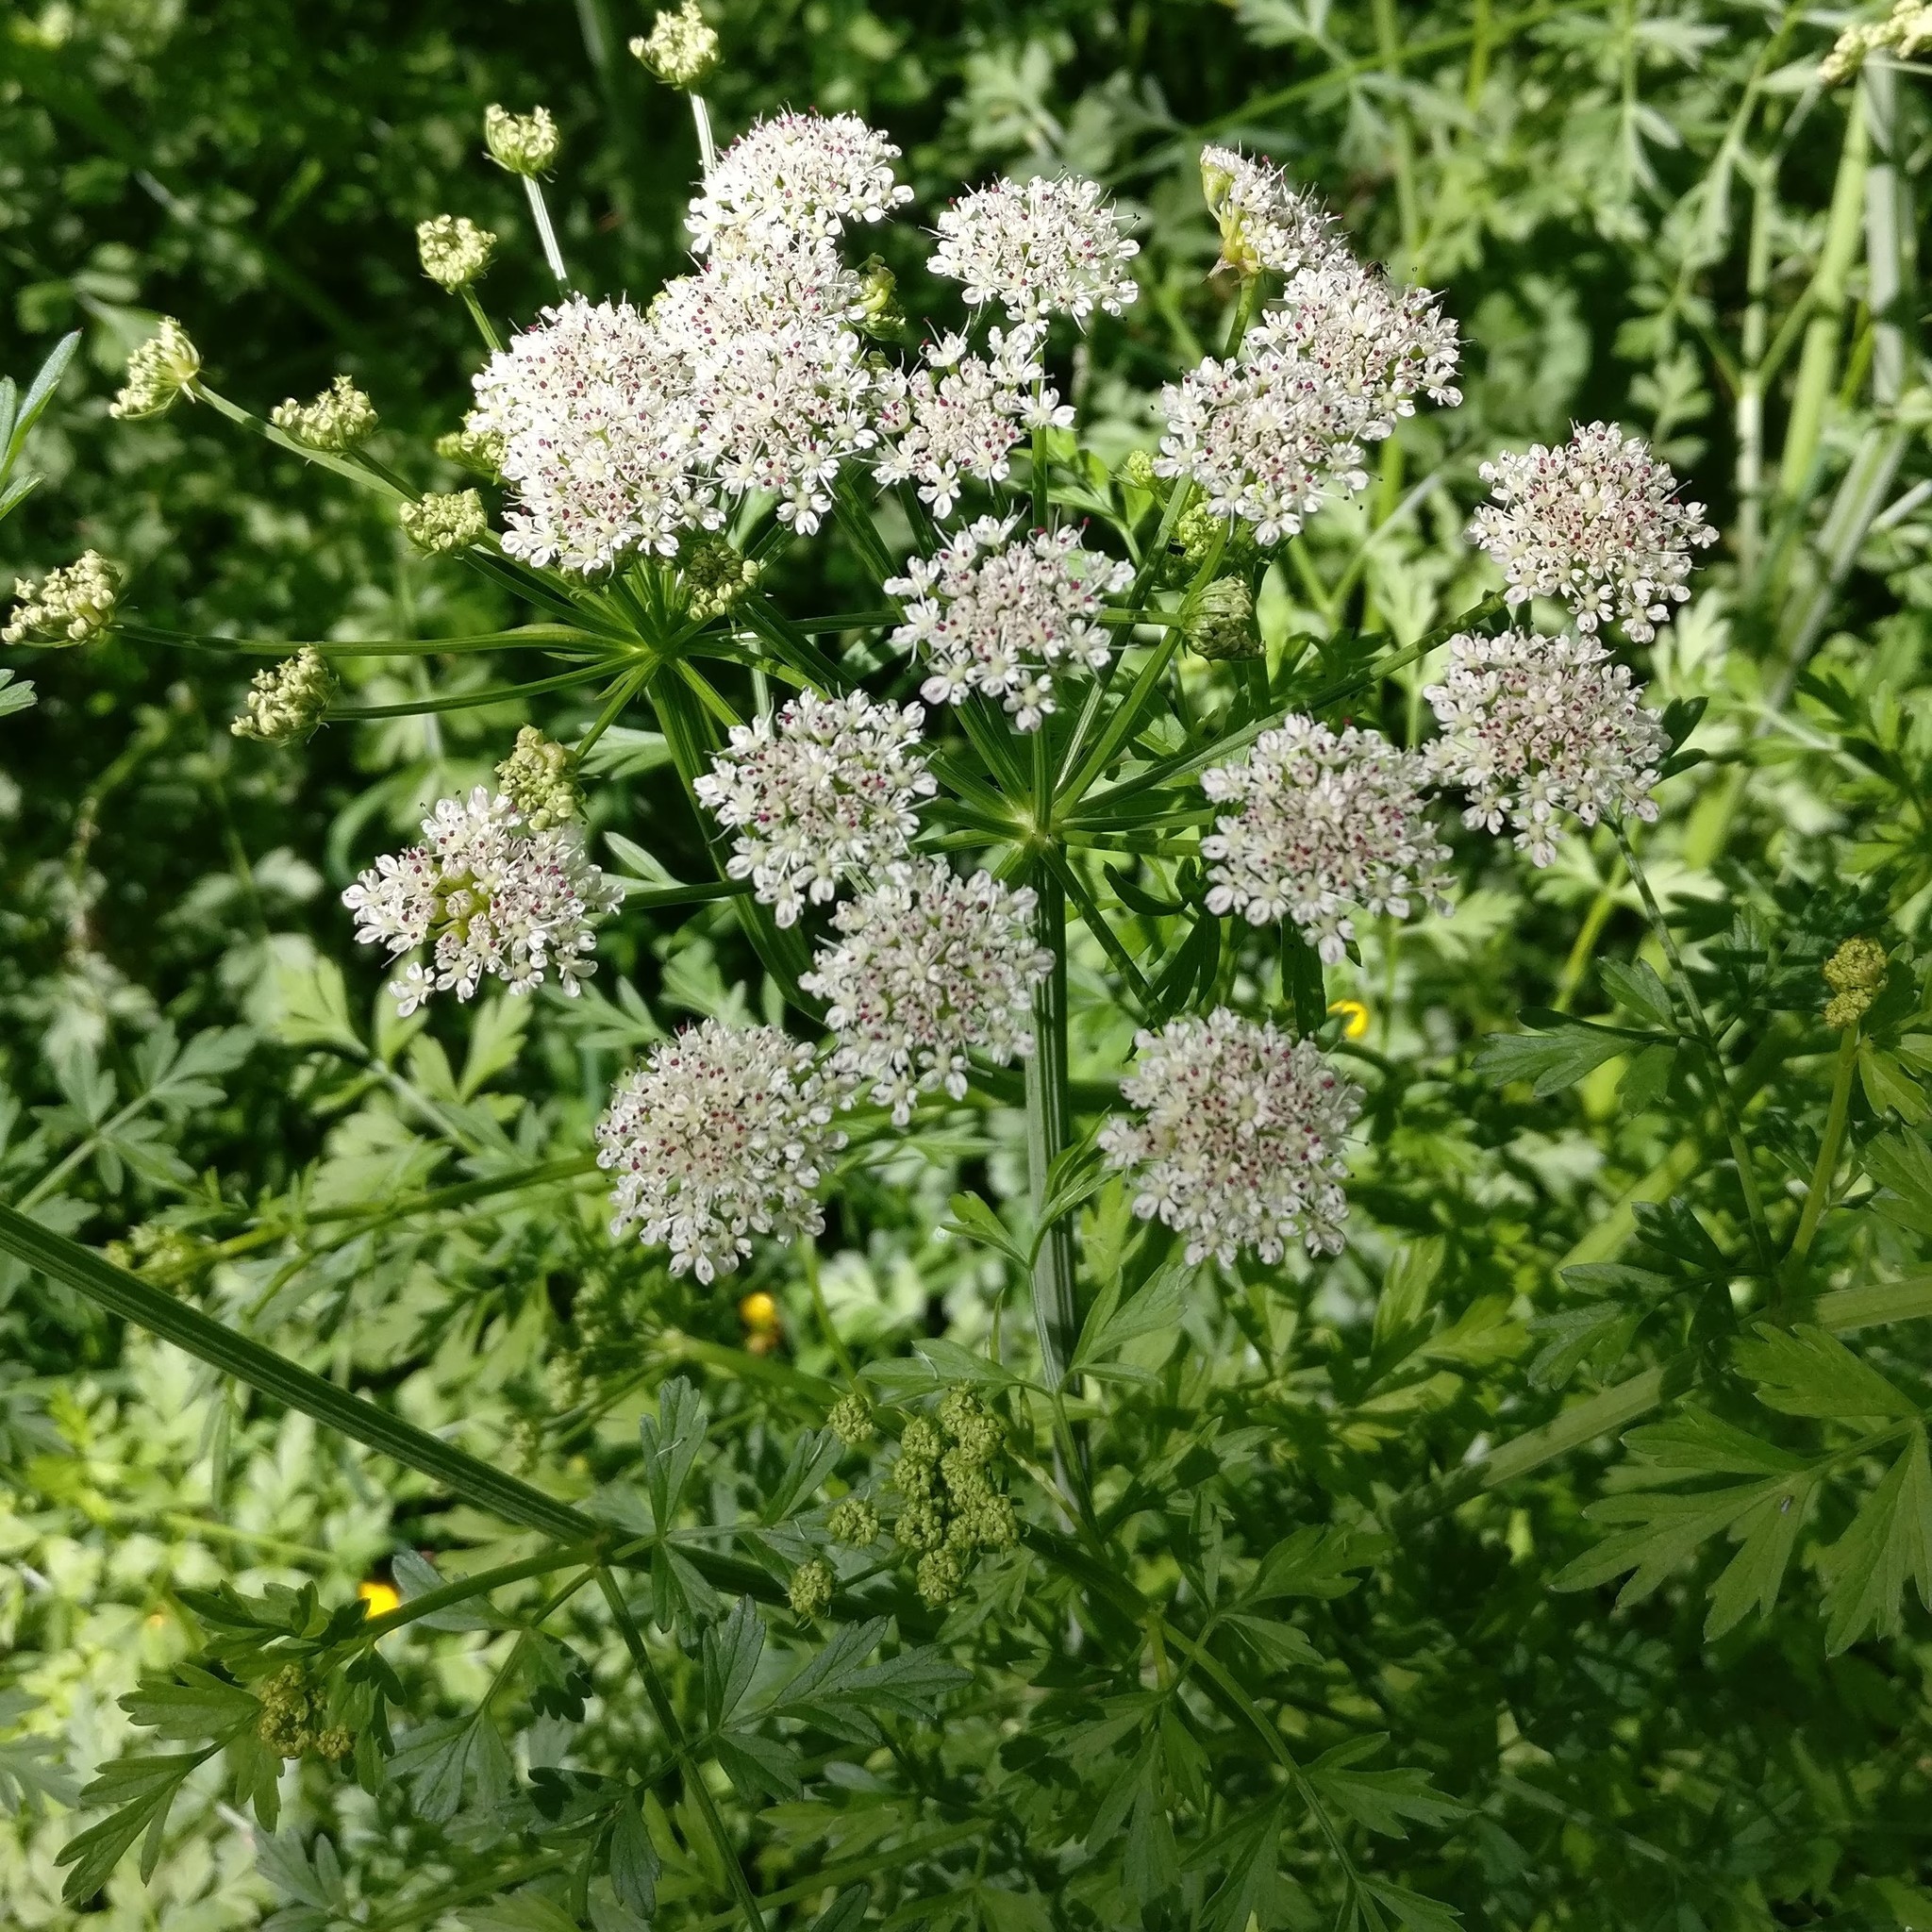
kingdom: Plantae
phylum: Tracheophyta
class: Magnoliopsida
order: Apiales
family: Apiaceae
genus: Oenanthe
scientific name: Oenanthe crocata
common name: Hemlock water-dropwort
